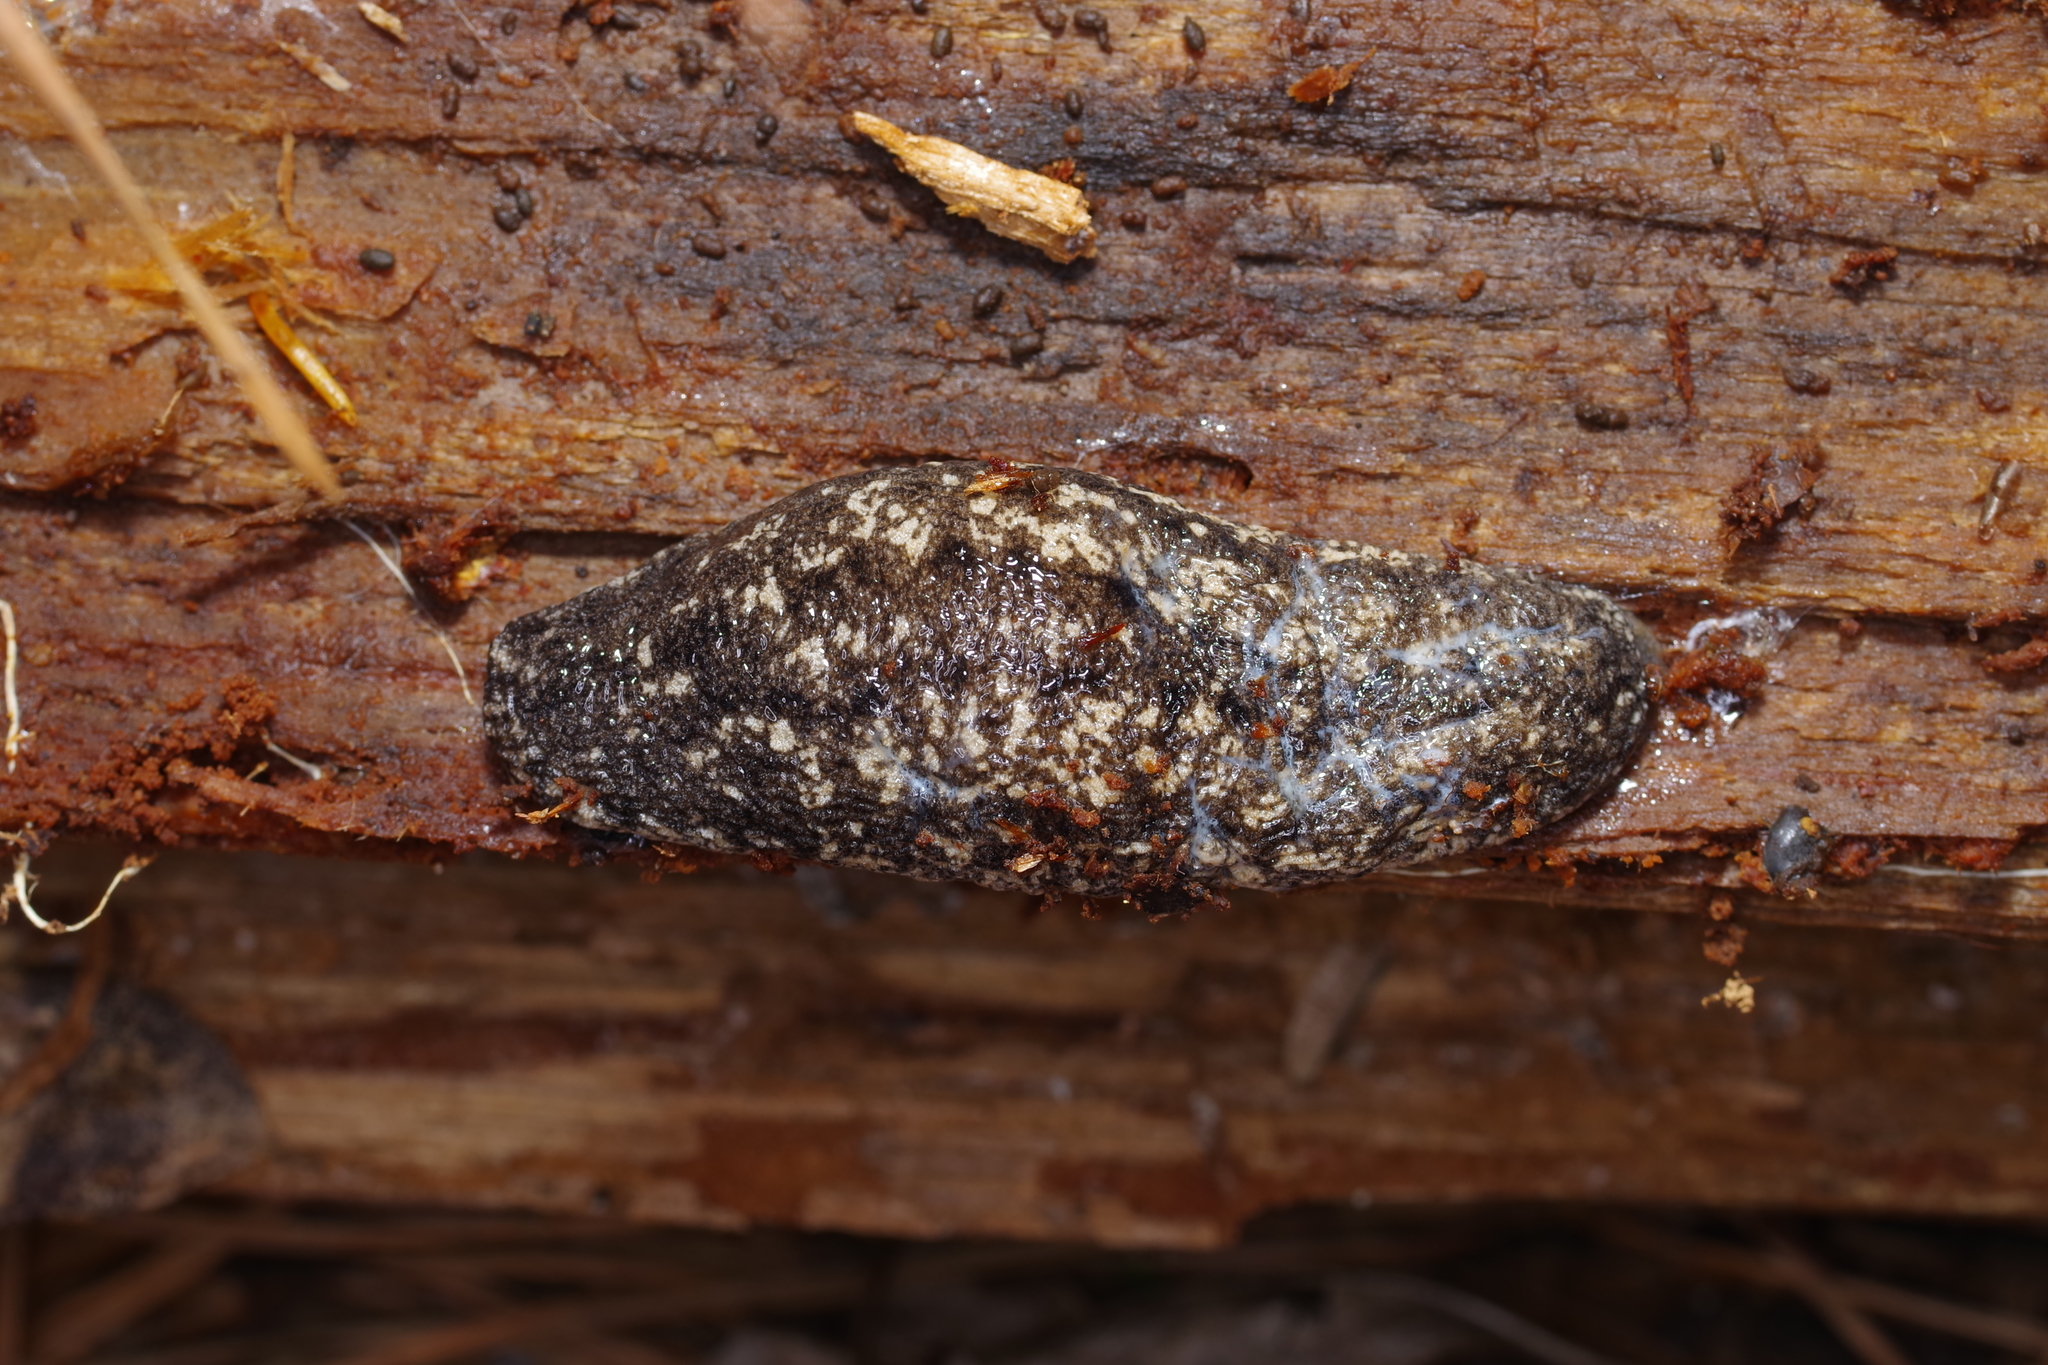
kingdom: Animalia
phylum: Mollusca
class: Gastropoda
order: Stylommatophora
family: Philomycidae
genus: Philomycus
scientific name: Philomycus carolinianus
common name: Carolina mantleslug
